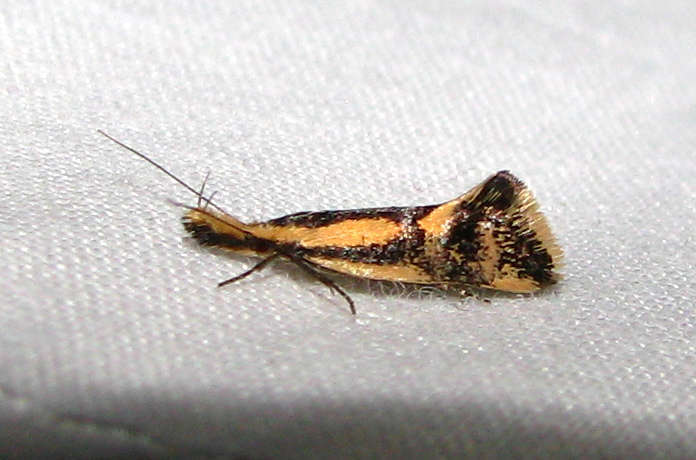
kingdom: Animalia
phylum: Arthropoda
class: Insecta
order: Lepidoptera
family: Oecophoridae
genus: Thema
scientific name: Thema xiphochrysa
